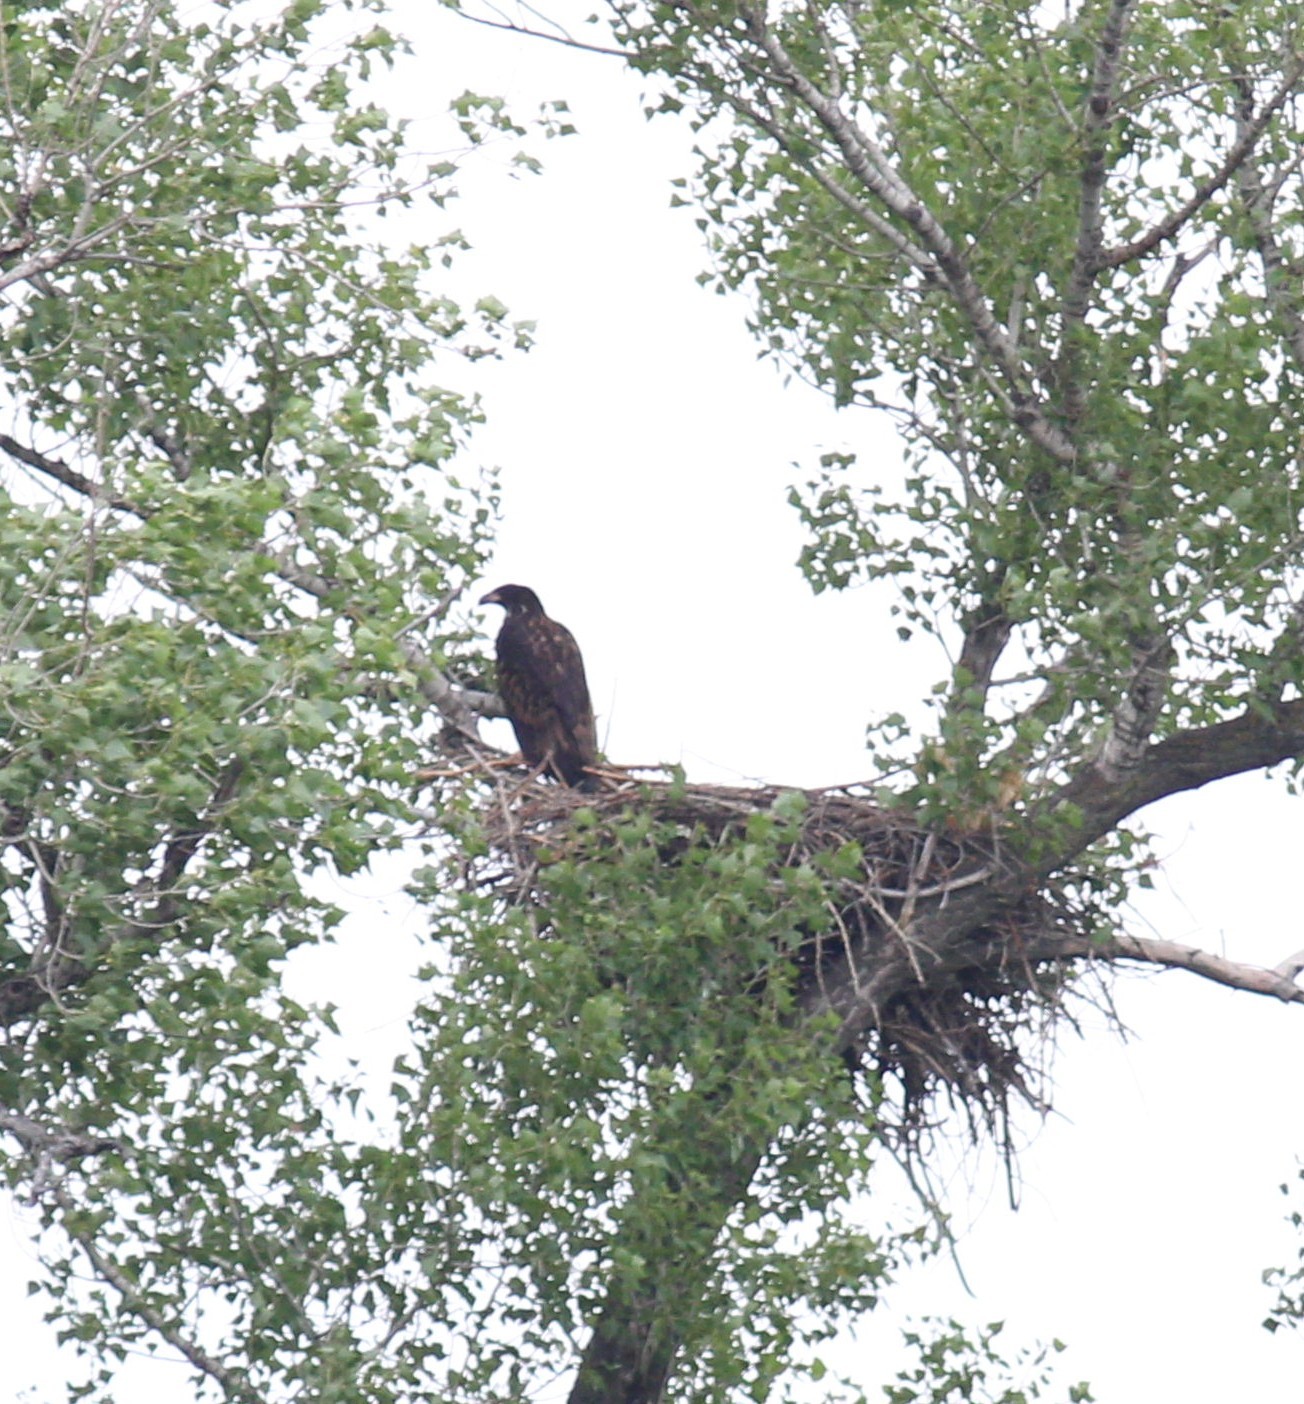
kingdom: Animalia
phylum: Chordata
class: Aves
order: Accipitriformes
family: Accipitridae
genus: Haliaeetus
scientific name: Haliaeetus albicilla
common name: White-tailed eagle
